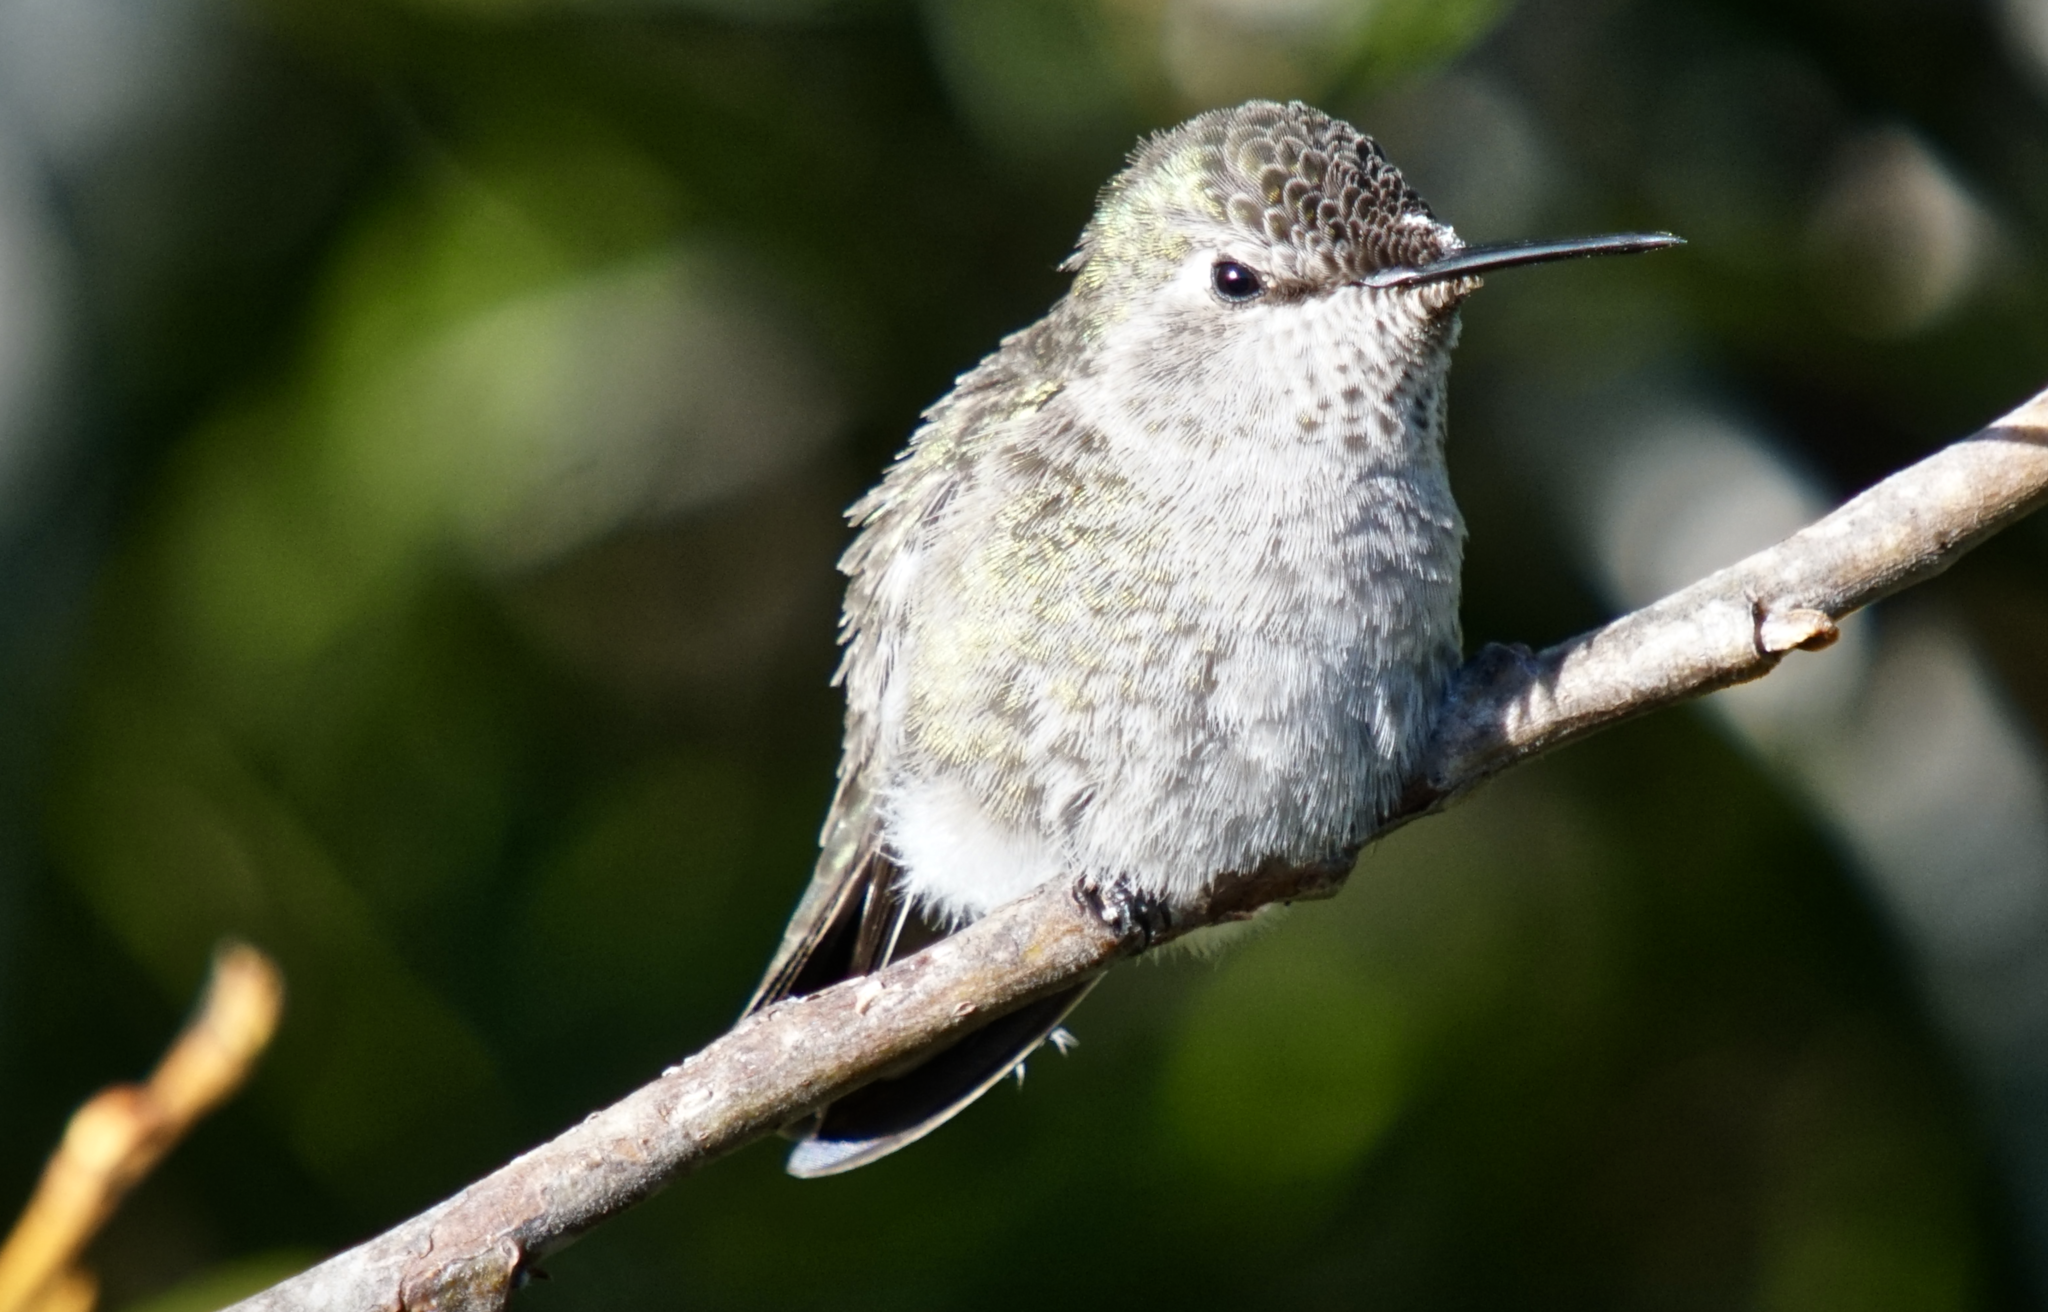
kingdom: Animalia
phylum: Chordata
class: Aves
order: Apodiformes
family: Trochilidae
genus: Calypte
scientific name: Calypte anna
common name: Anna's hummingbird
